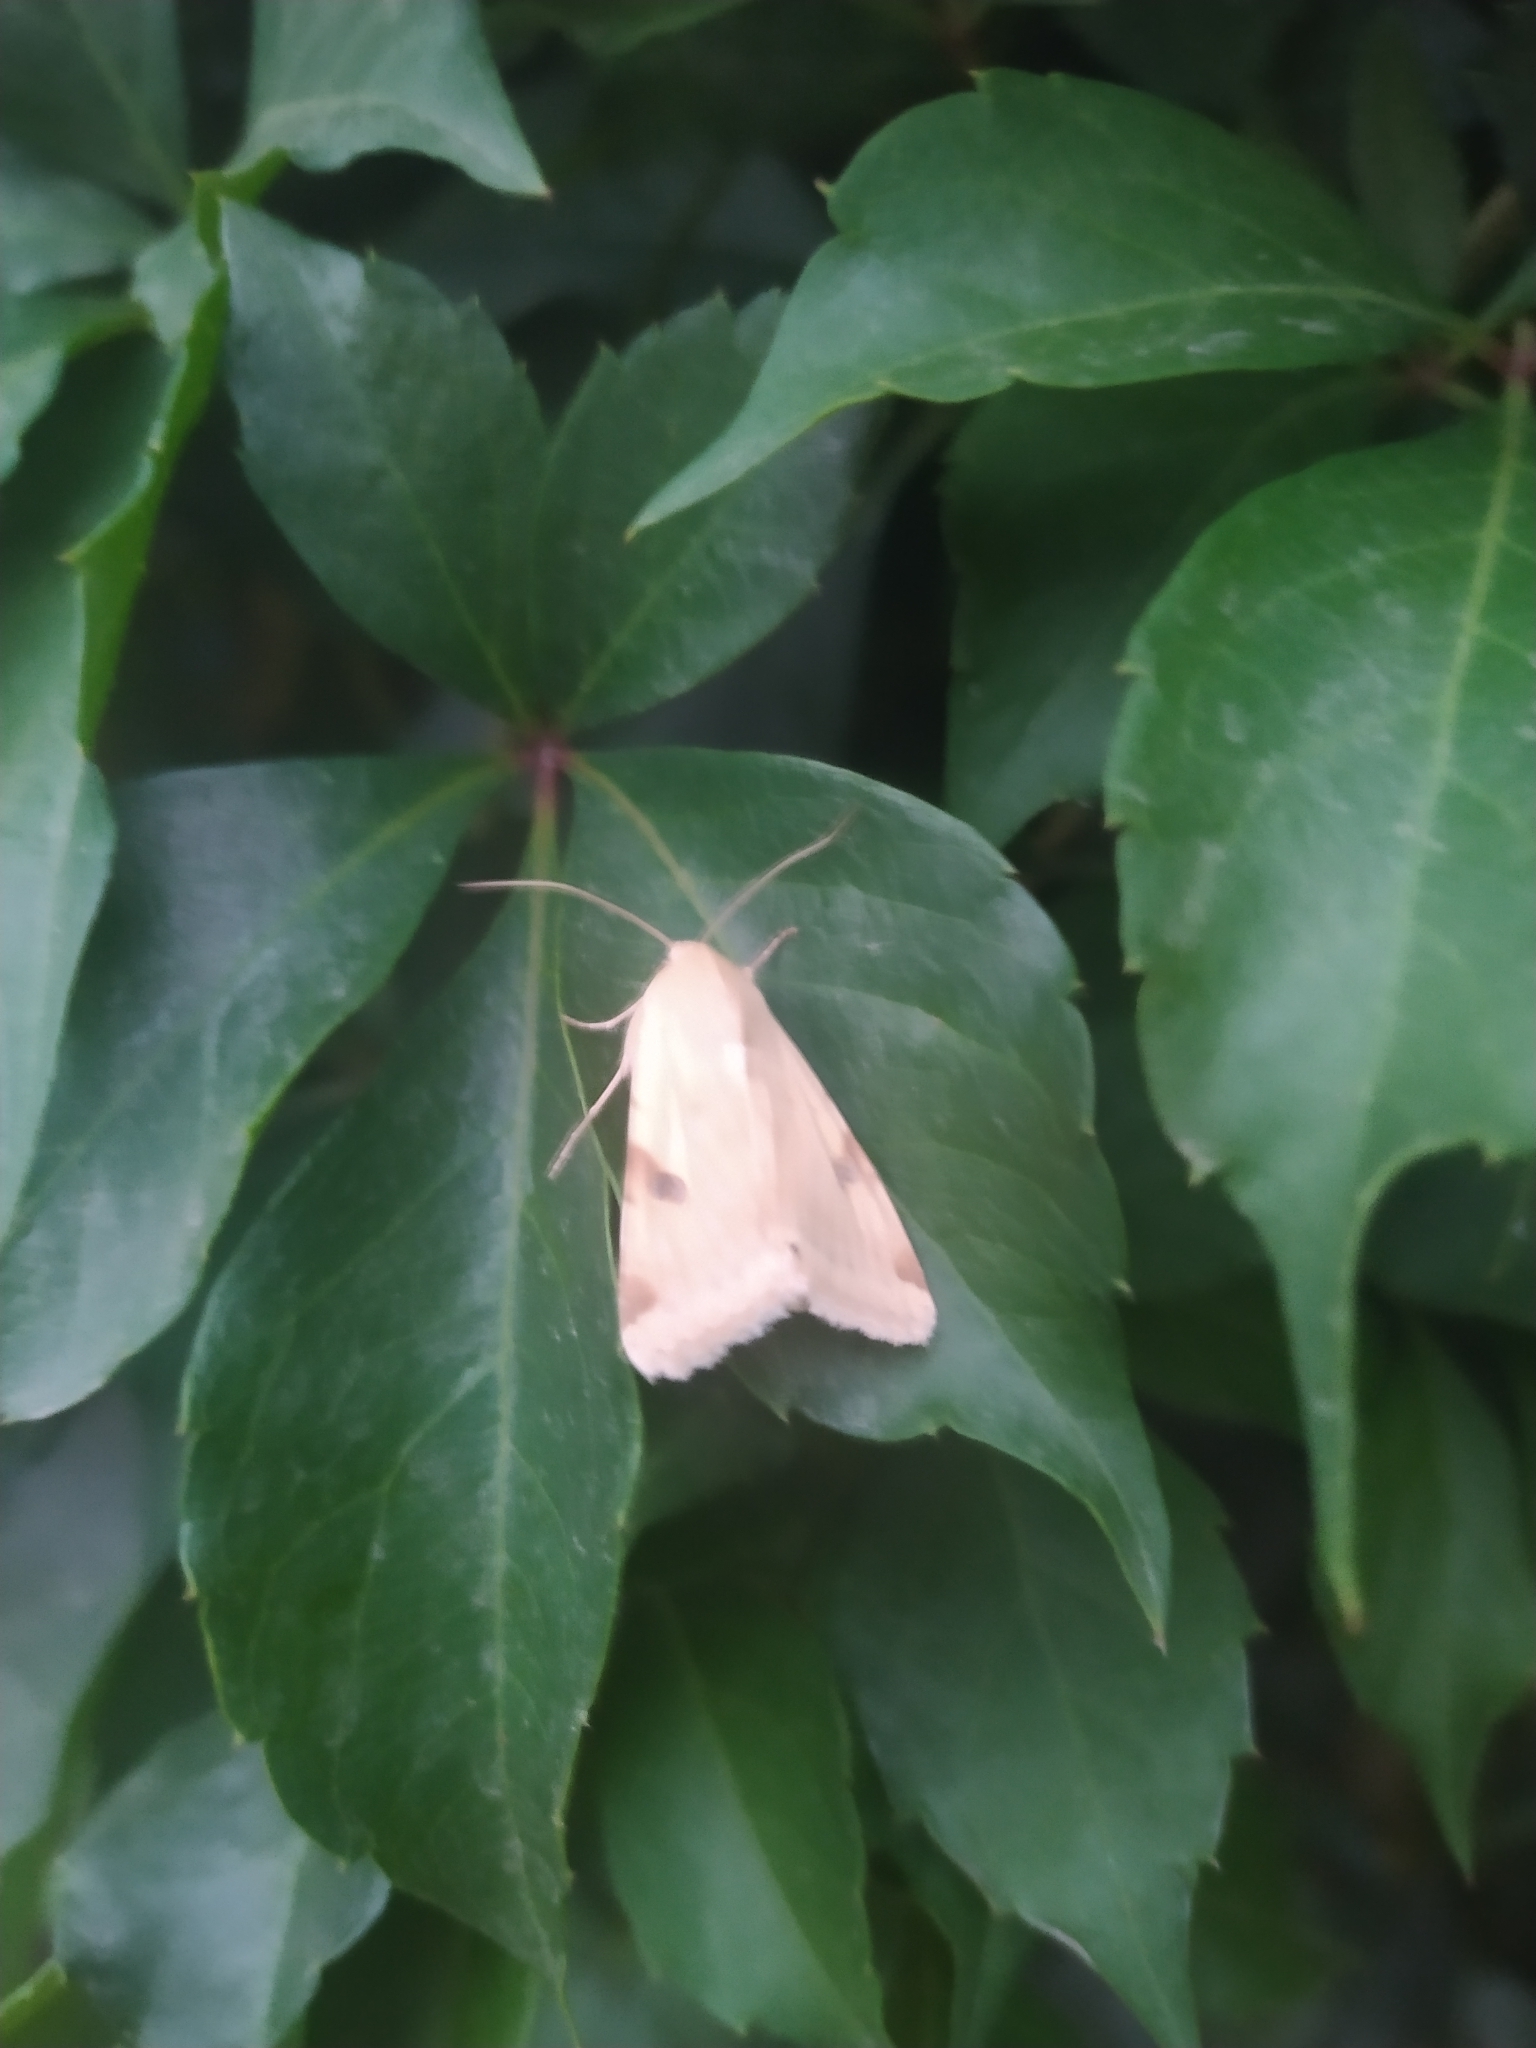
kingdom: Animalia
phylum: Arthropoda
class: Insecta
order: Lepidoptera
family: Noctuidae
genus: Heliothis
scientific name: Heliothis peltigera
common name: Bordered straw
